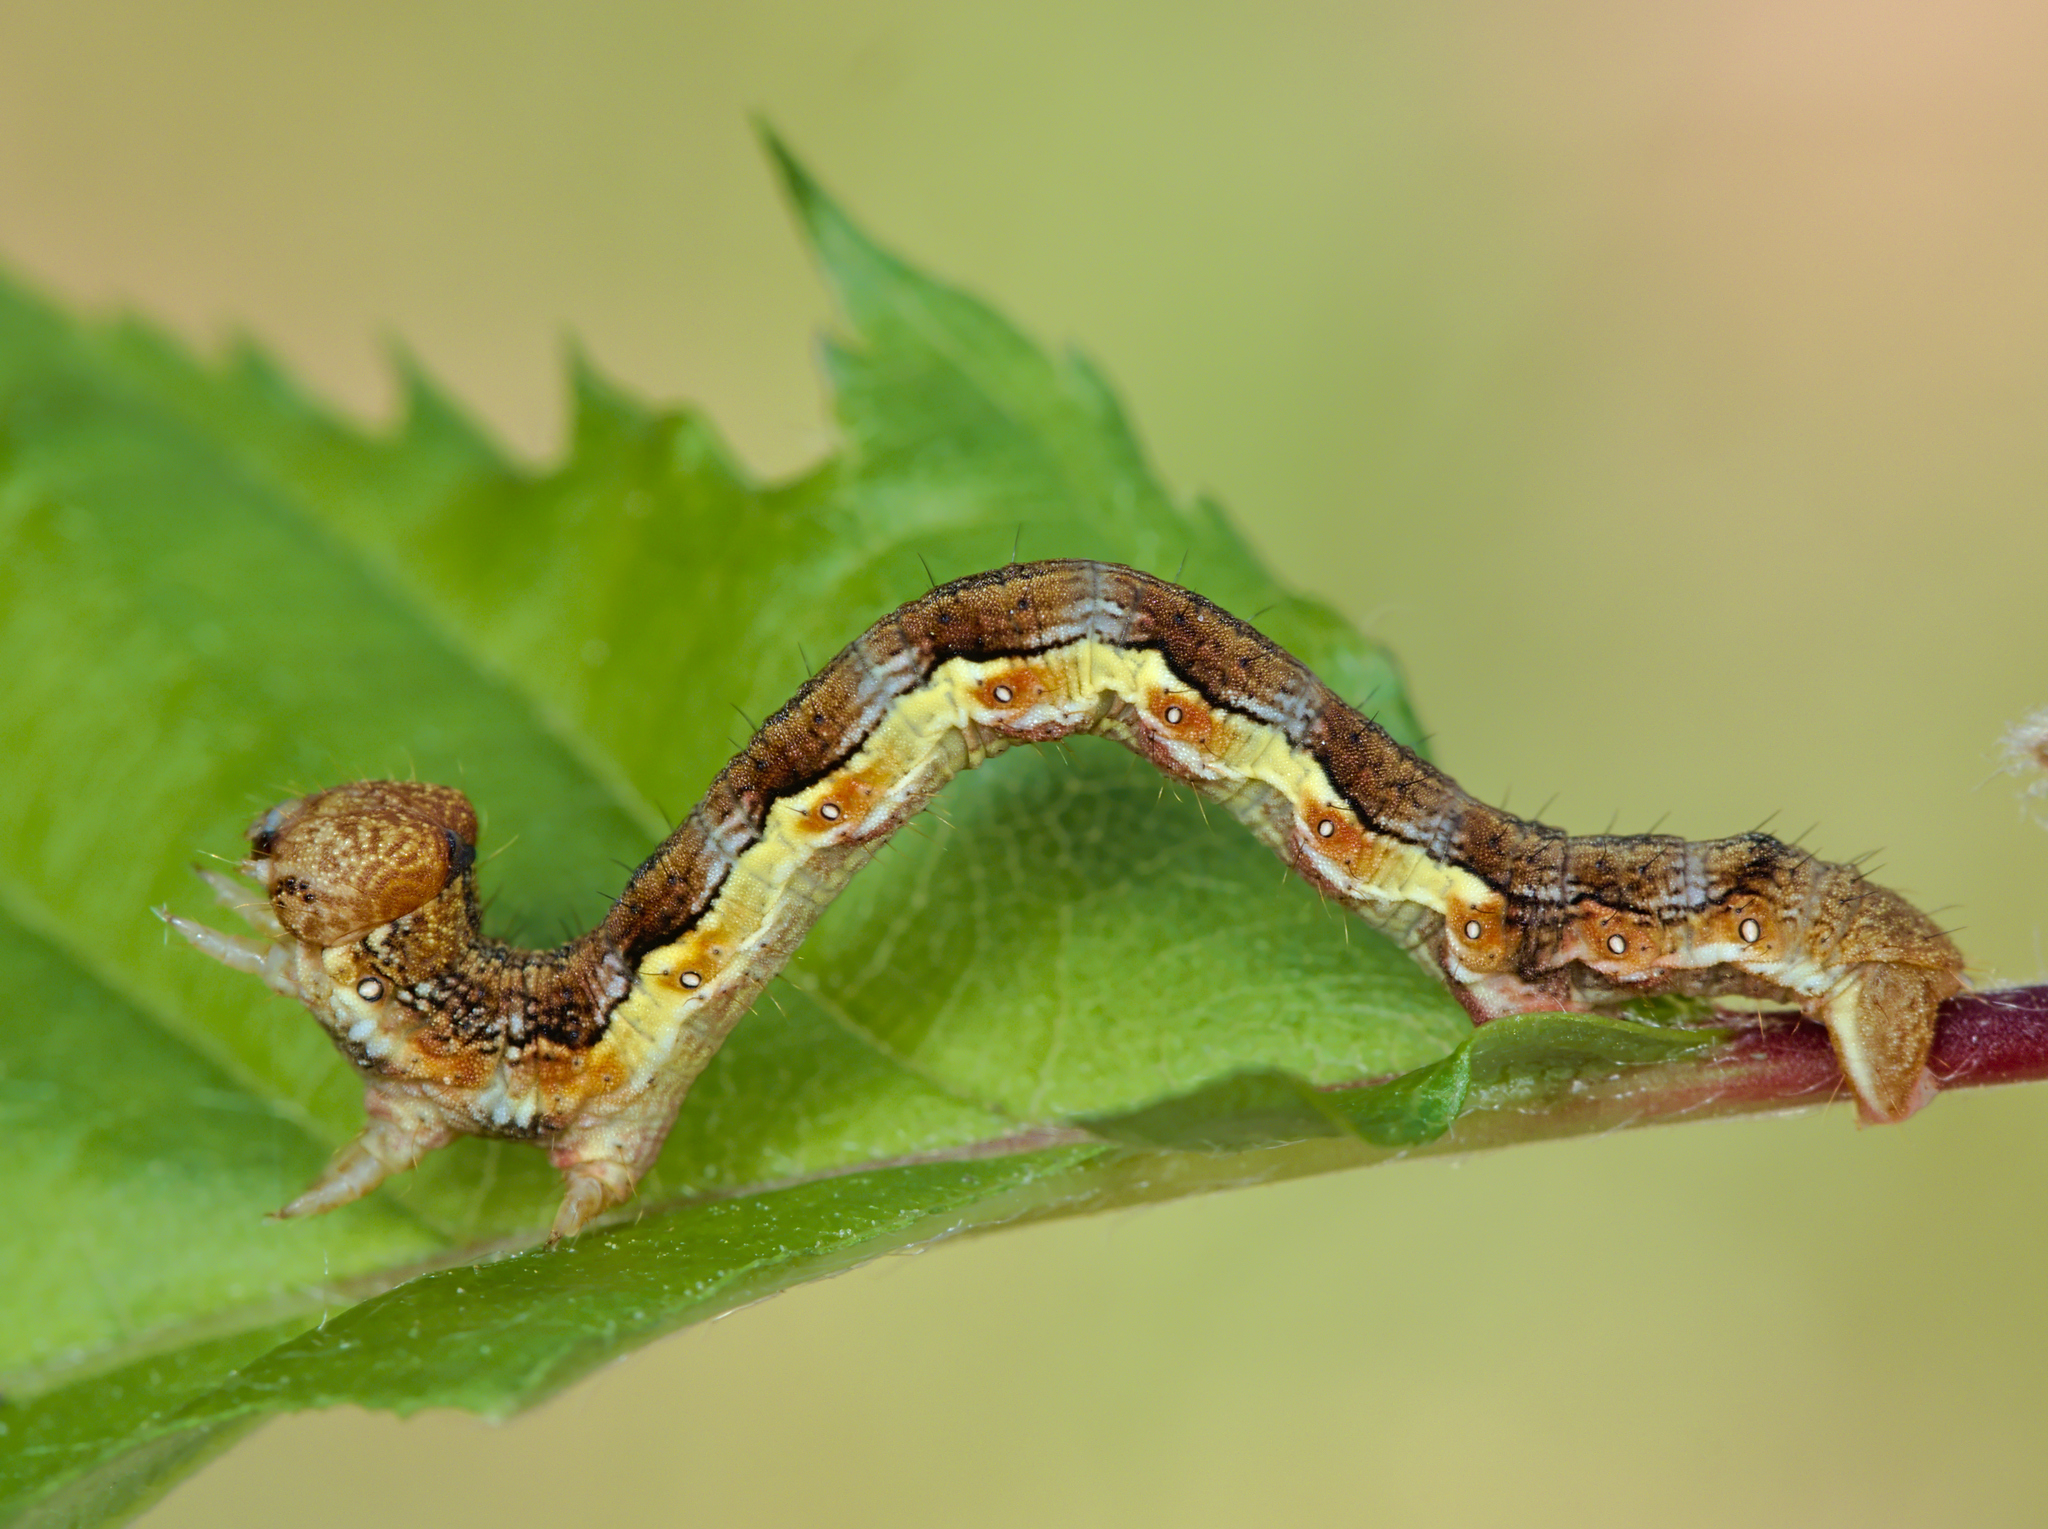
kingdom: Animalia
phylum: Arthropoda
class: Insecta
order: Lepidoptera
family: Geometridae
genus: Erannis
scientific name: Erannis defoliaria
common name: Mottled umber
